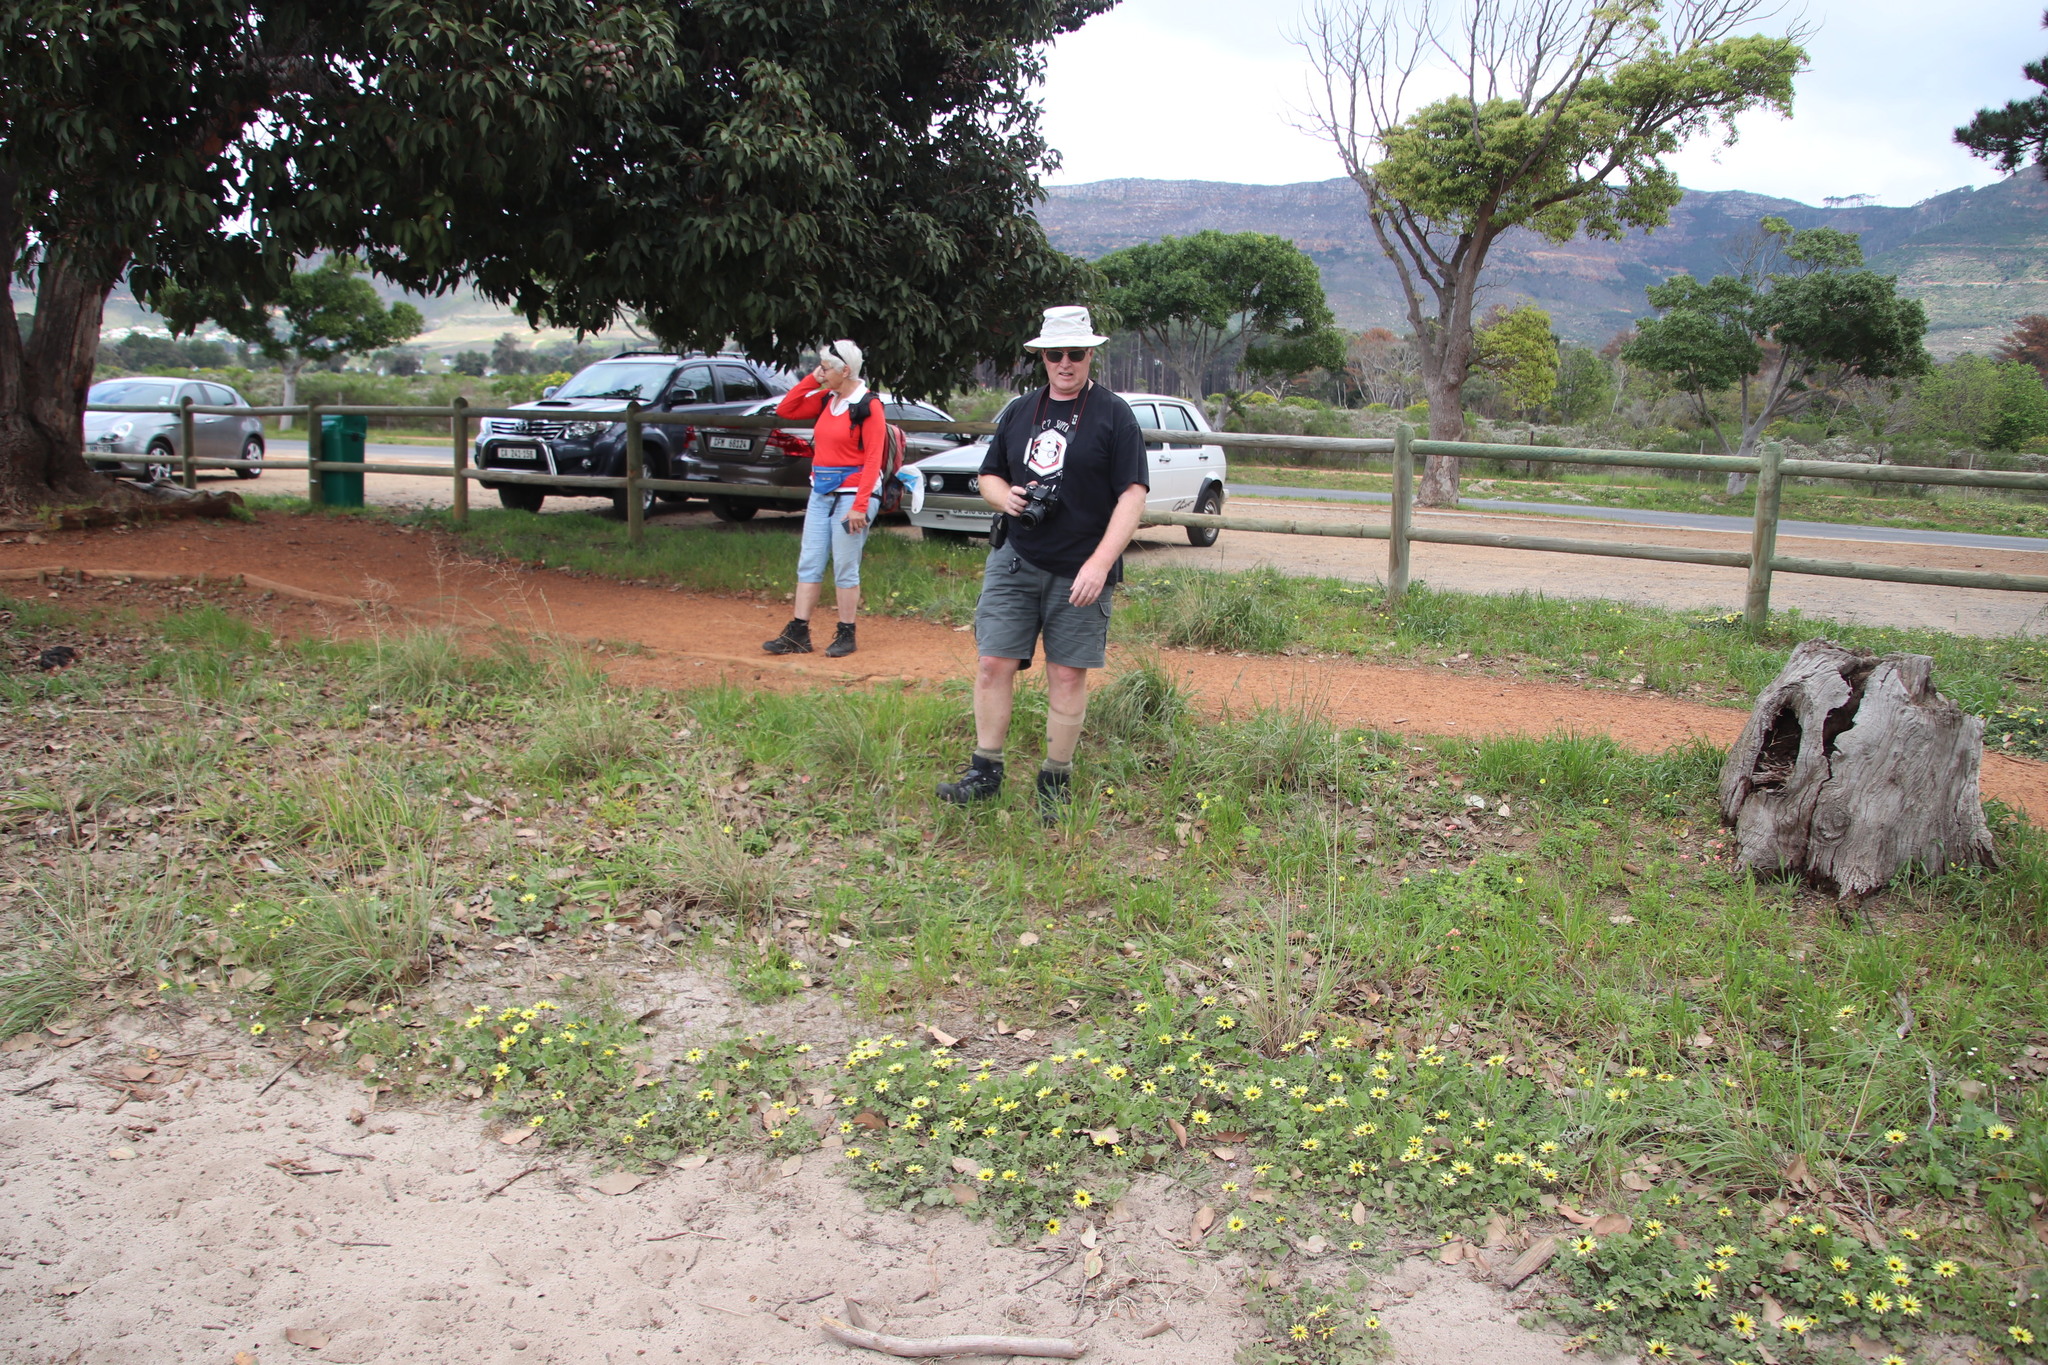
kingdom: Plantae
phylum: Tracheophyta
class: Magnoliopsida
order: Asterales
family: Asteraceae
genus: Arctotheca
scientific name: Arctotheca calendula
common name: Capeweed
